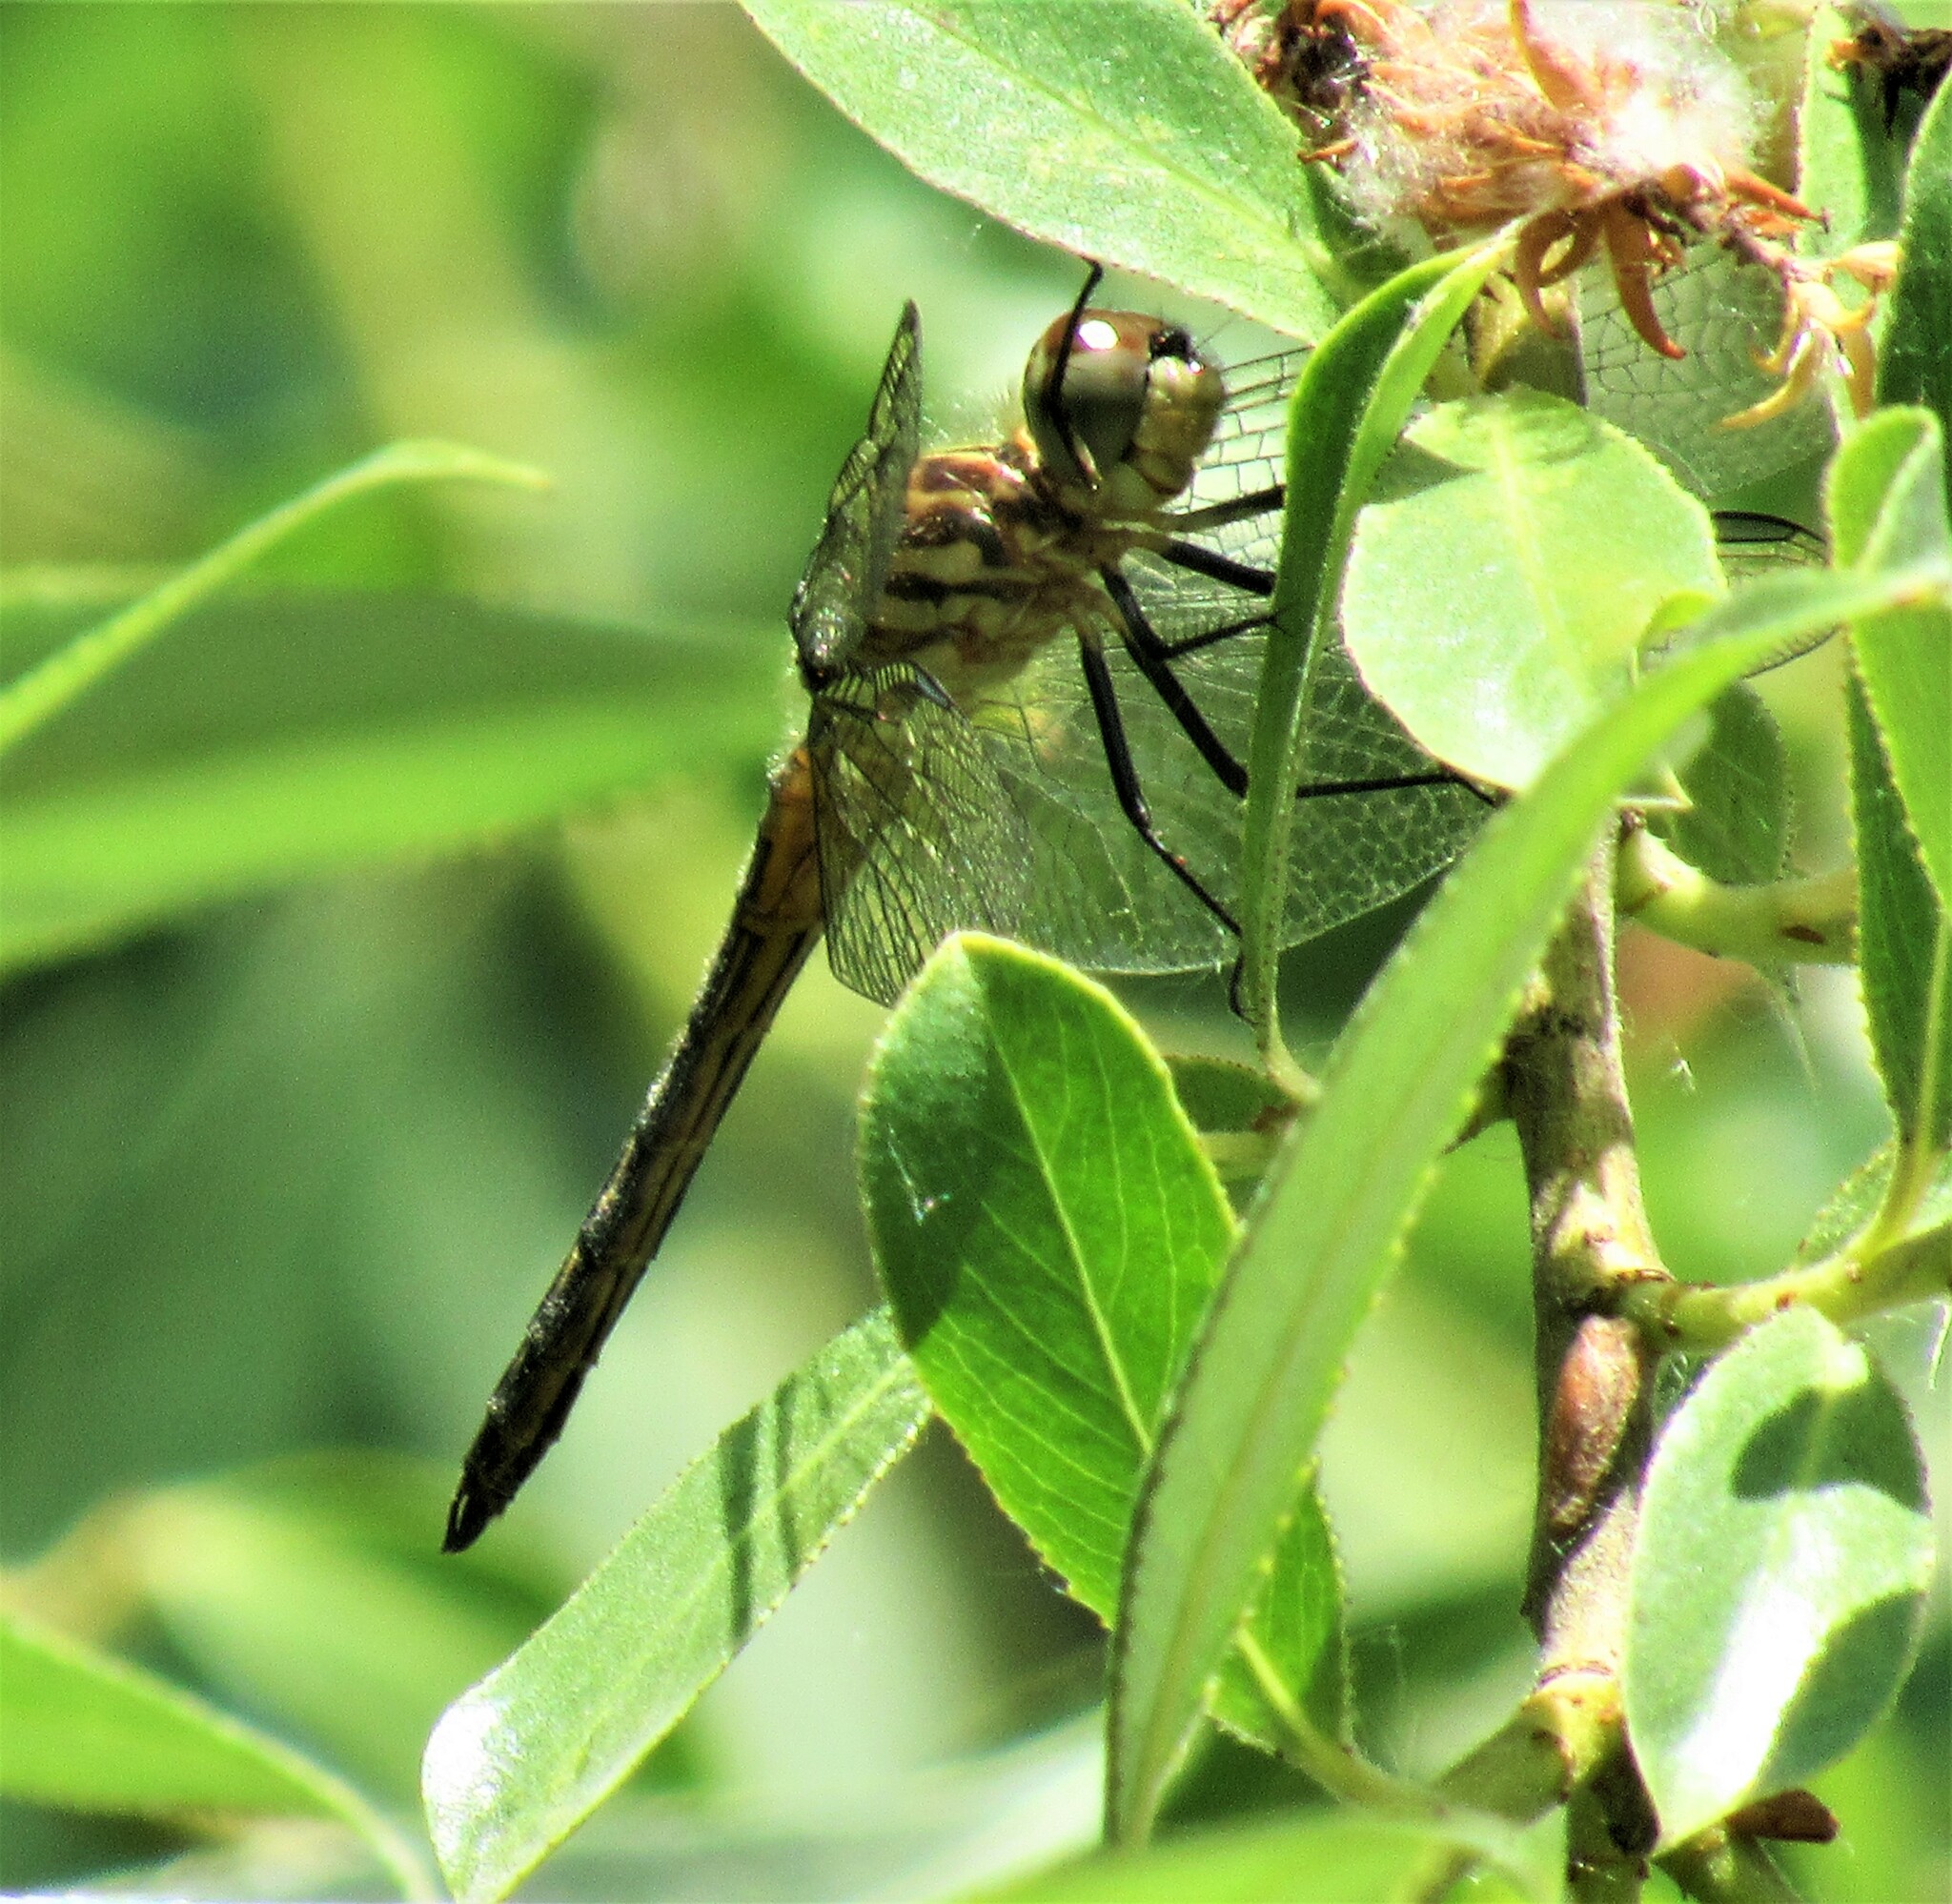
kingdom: Animalia
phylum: Arthropoda
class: Insecta
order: Odonata
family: Libellulidae
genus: Pachydiplax
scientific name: Pachydiplax longipennis
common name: Blue dasher
